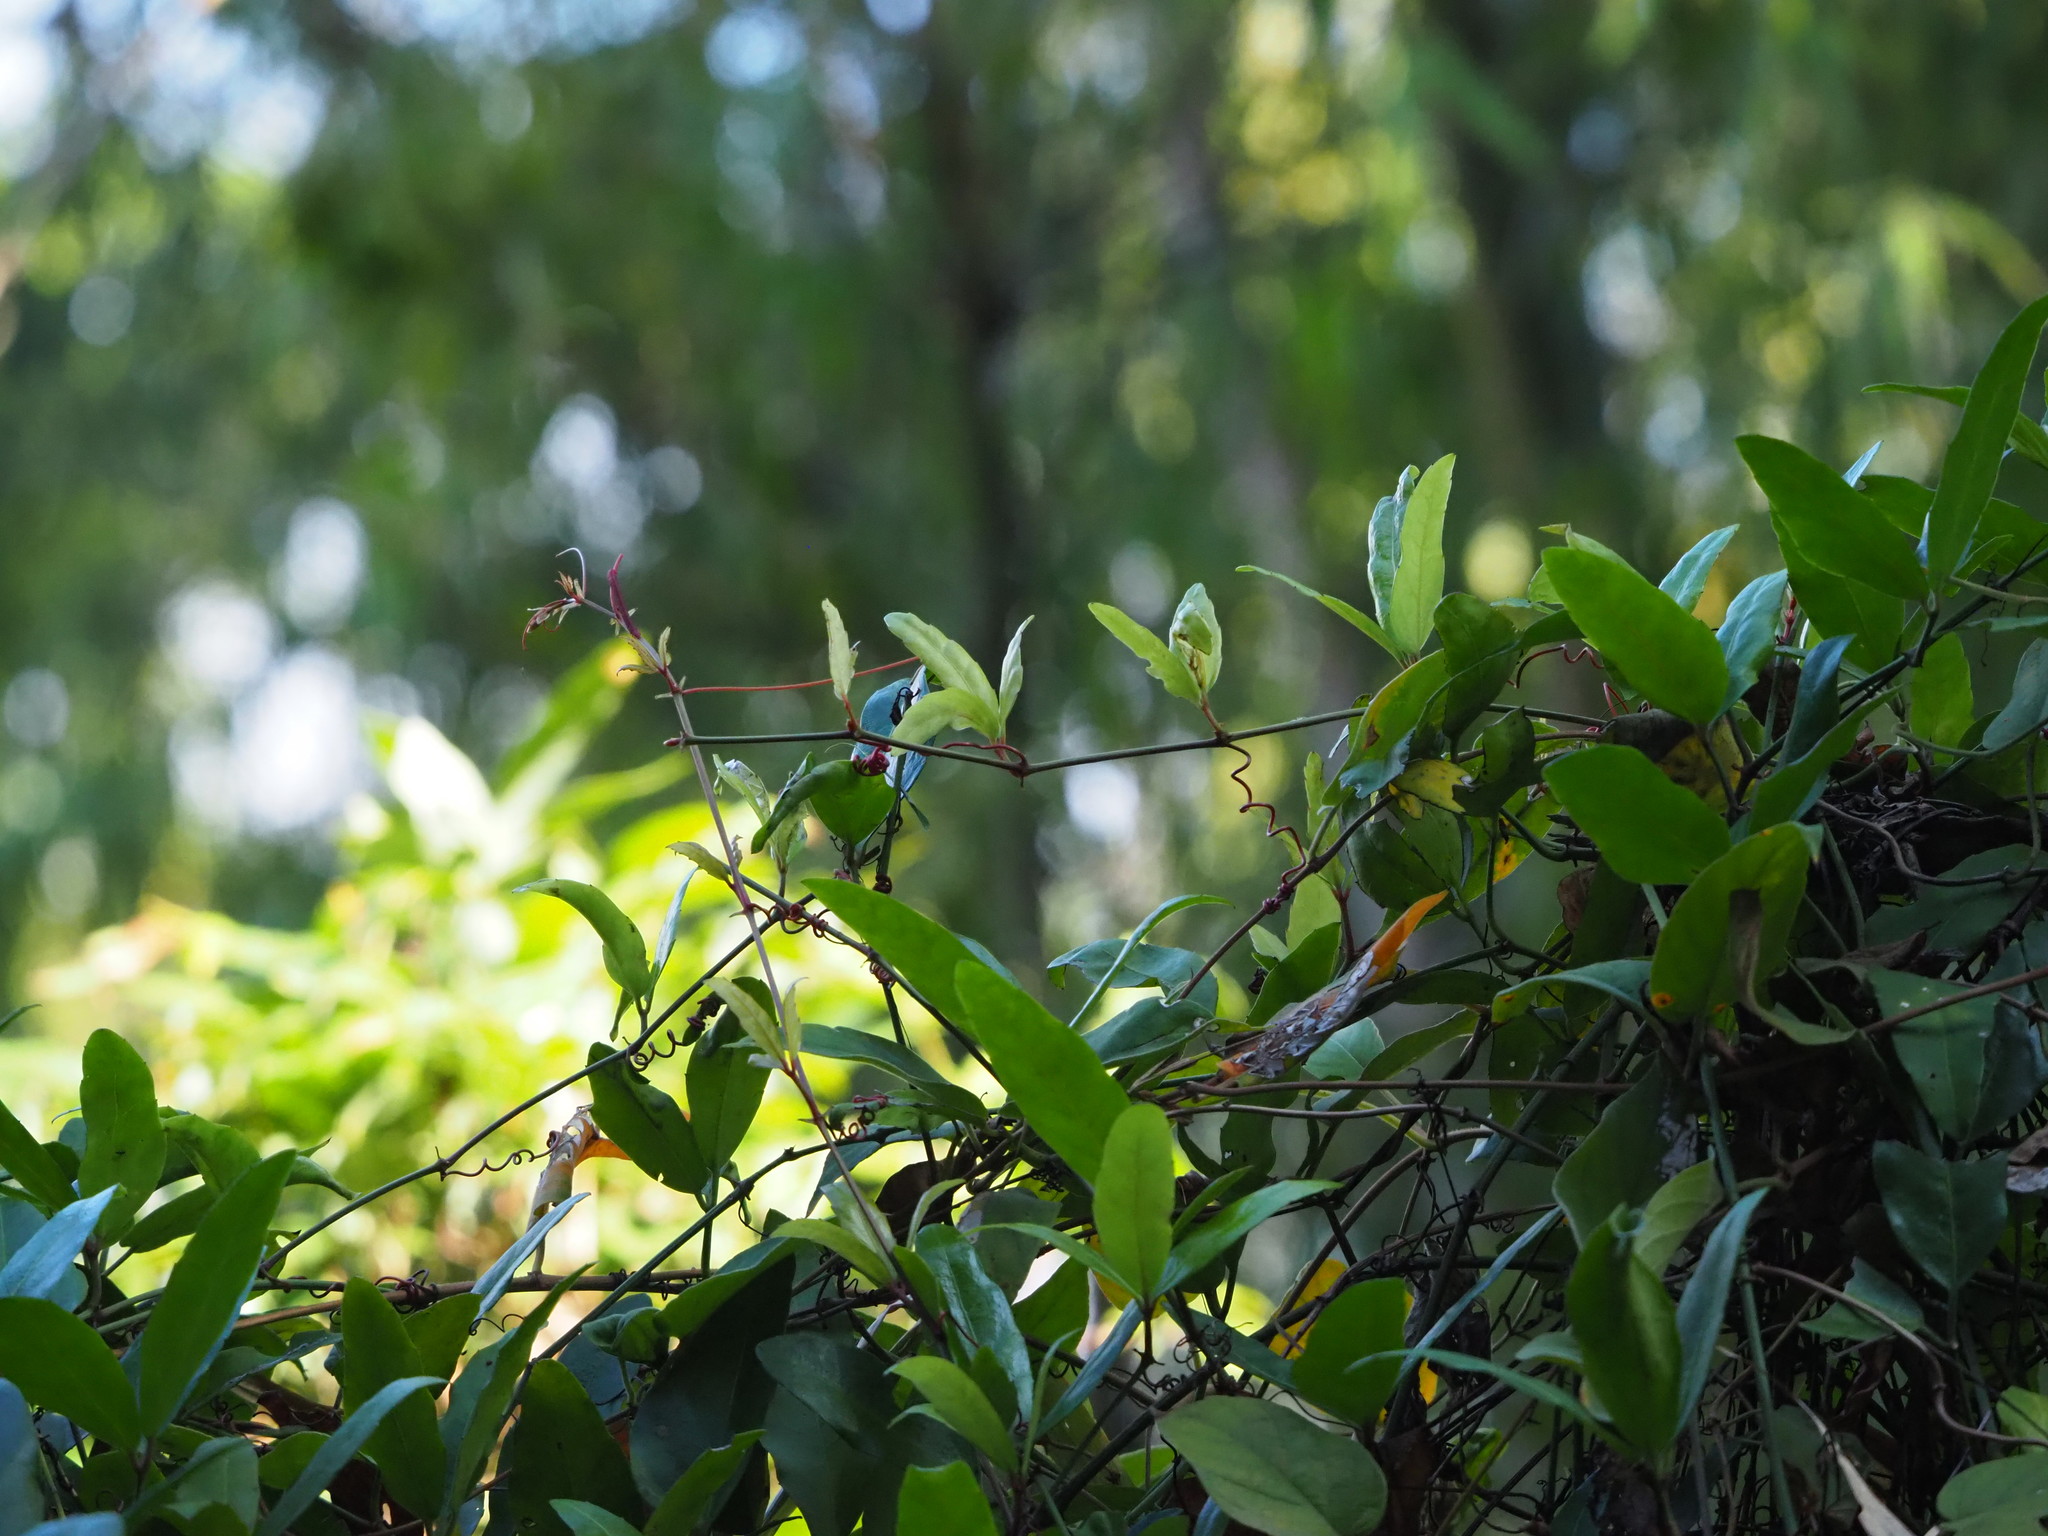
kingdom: Plantae
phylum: Tracheophyta
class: Magnoliopsida
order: Vitales
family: Vitaceae
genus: Tetrastigma
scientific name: Tetrastigma formosanum
